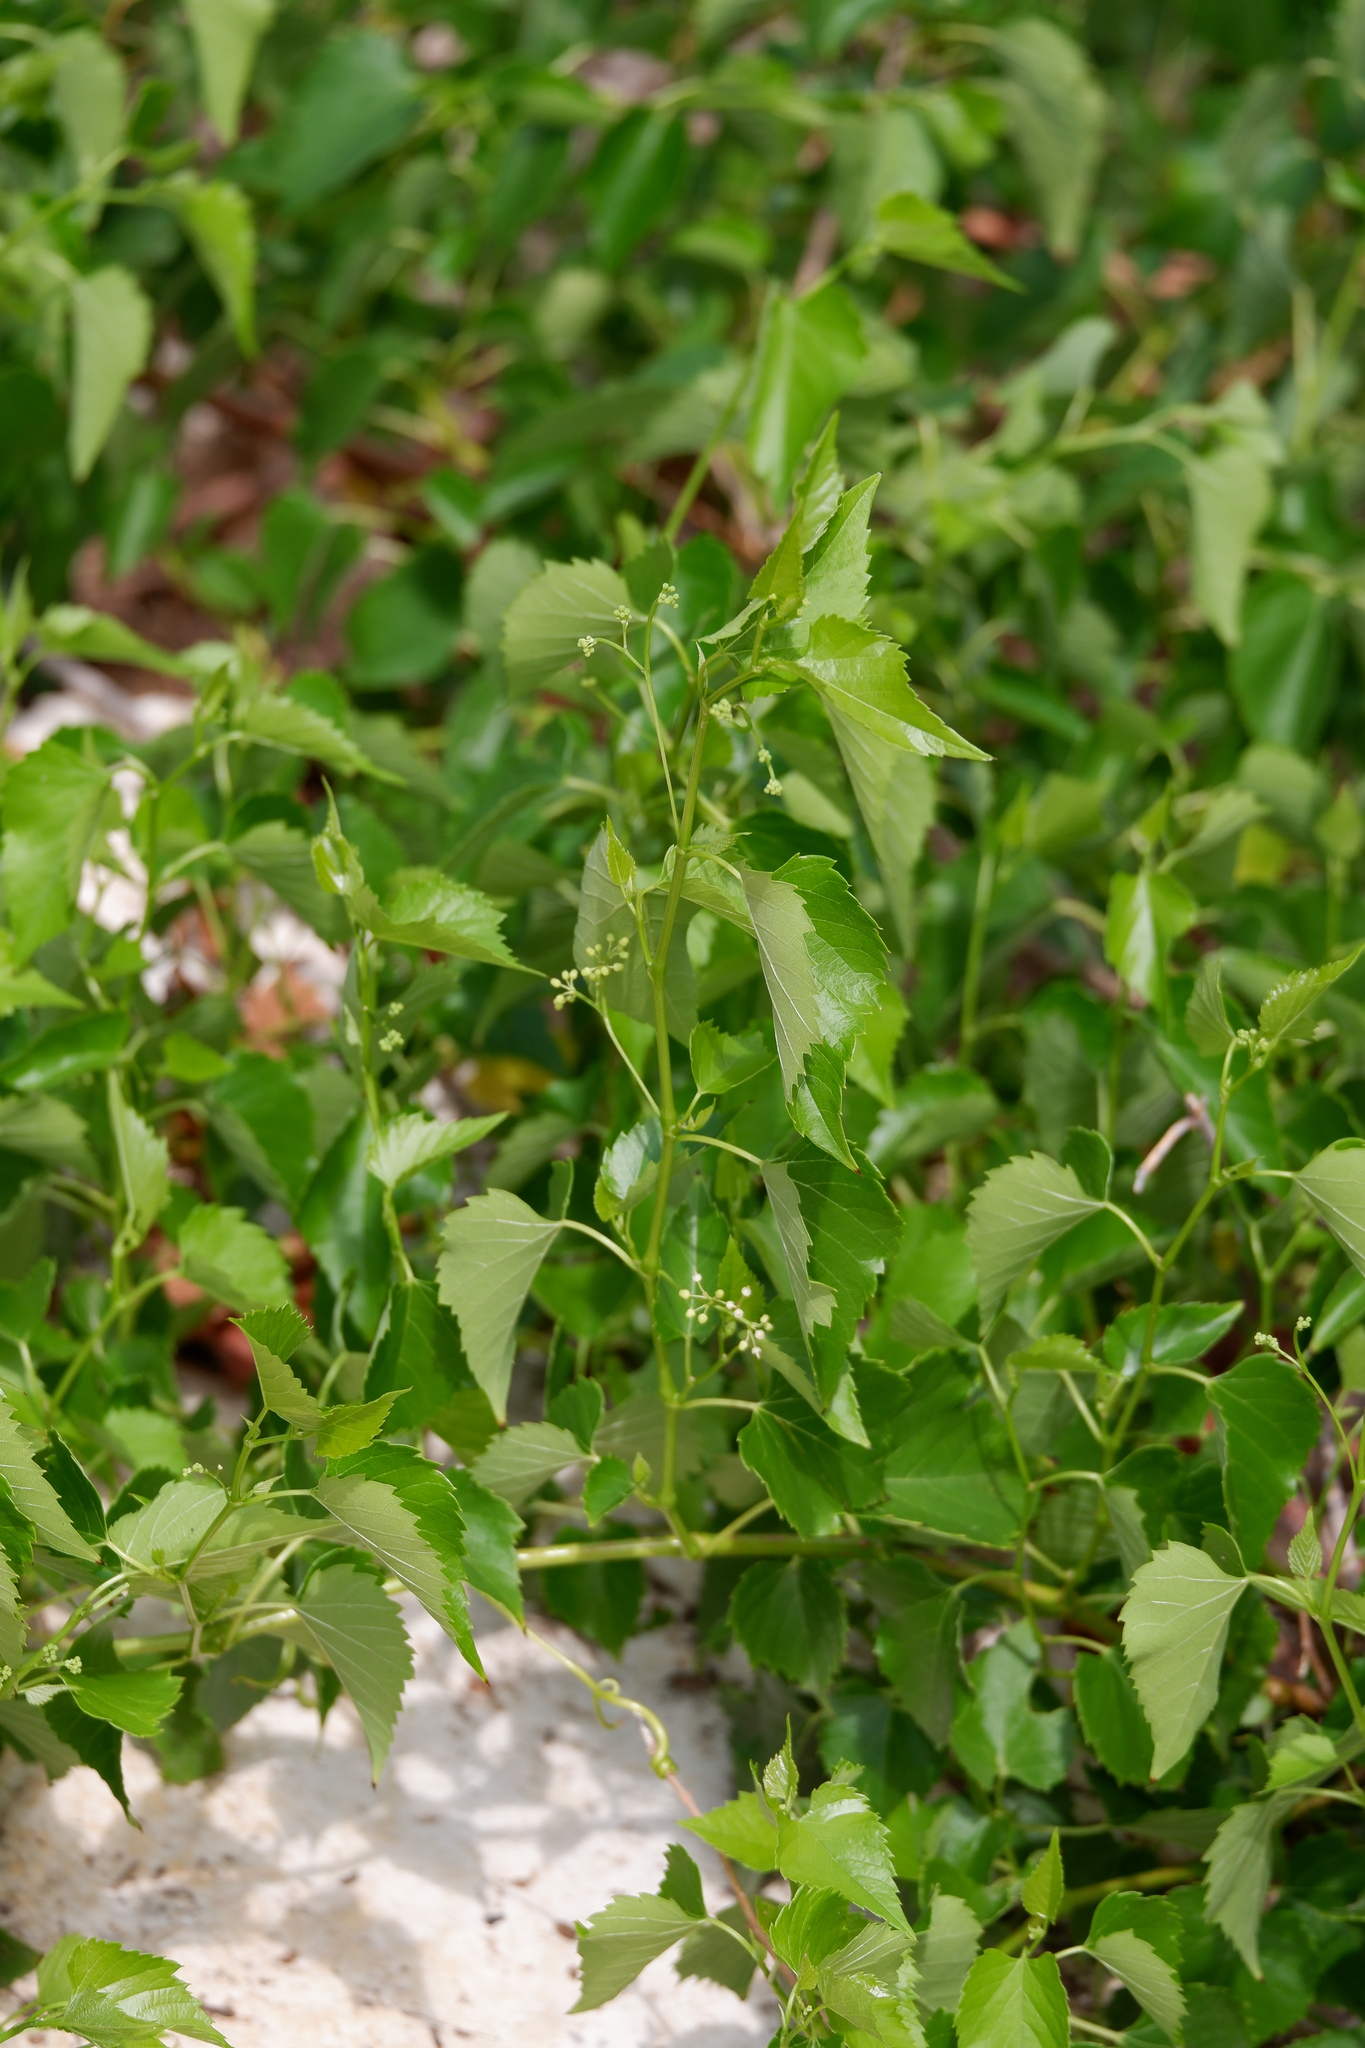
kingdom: Plantae
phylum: Tracheophyta
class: Magnoliopsida
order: Vitales
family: Vitaceae
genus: Ampelopsis
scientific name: Ampelopsis cordata
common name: Heart-leaf ampelopsis
